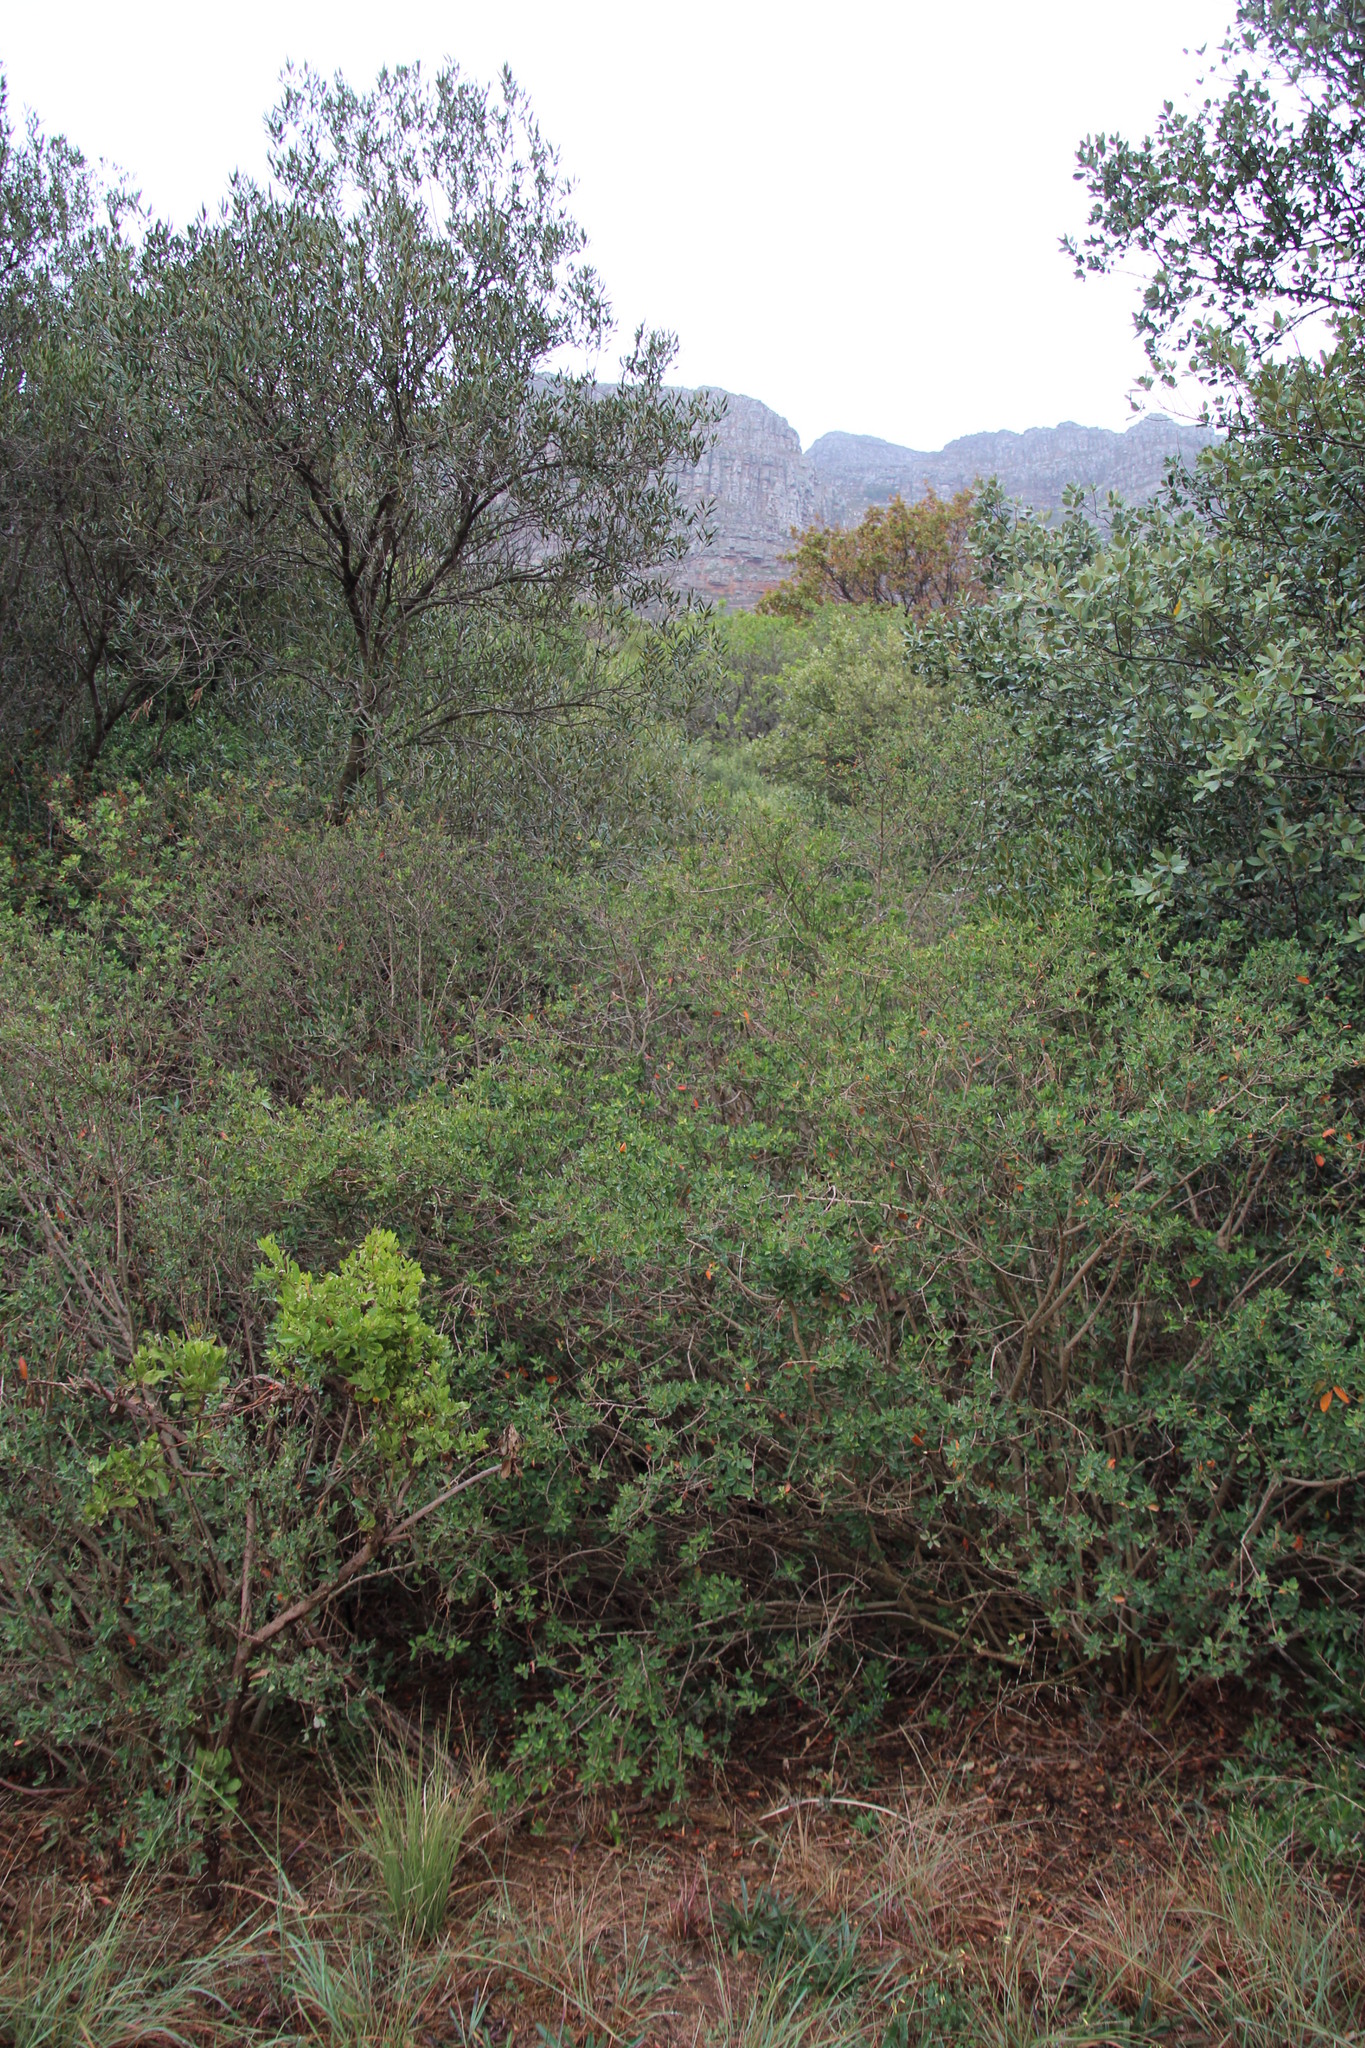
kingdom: Plantae
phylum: Tracheophyta
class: Magnoliopsida
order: Malpighiales
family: Peraceae
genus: Clutia
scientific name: Clutia pulchella
